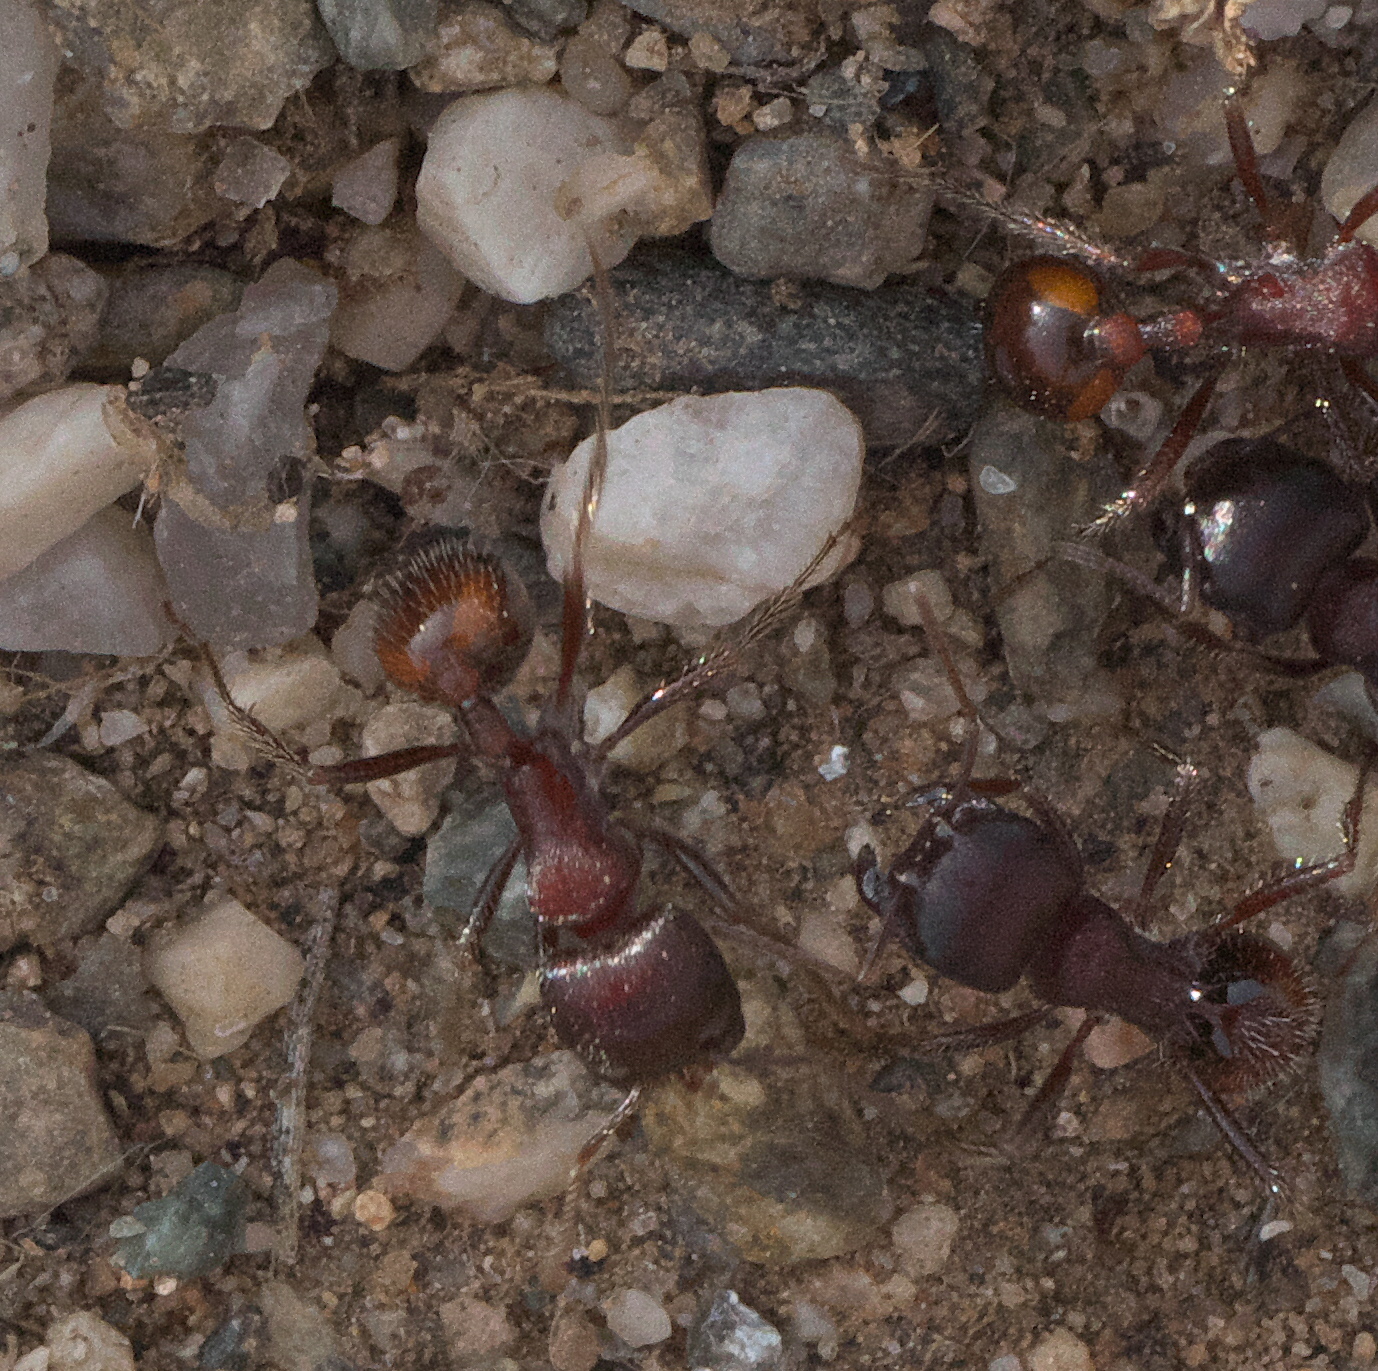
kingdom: Animalia
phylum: Arthropoda
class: Insecta
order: Hymenoptera
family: Formicidae
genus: Pogonomyrmex
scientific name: Pogonomyrmex rugosus
